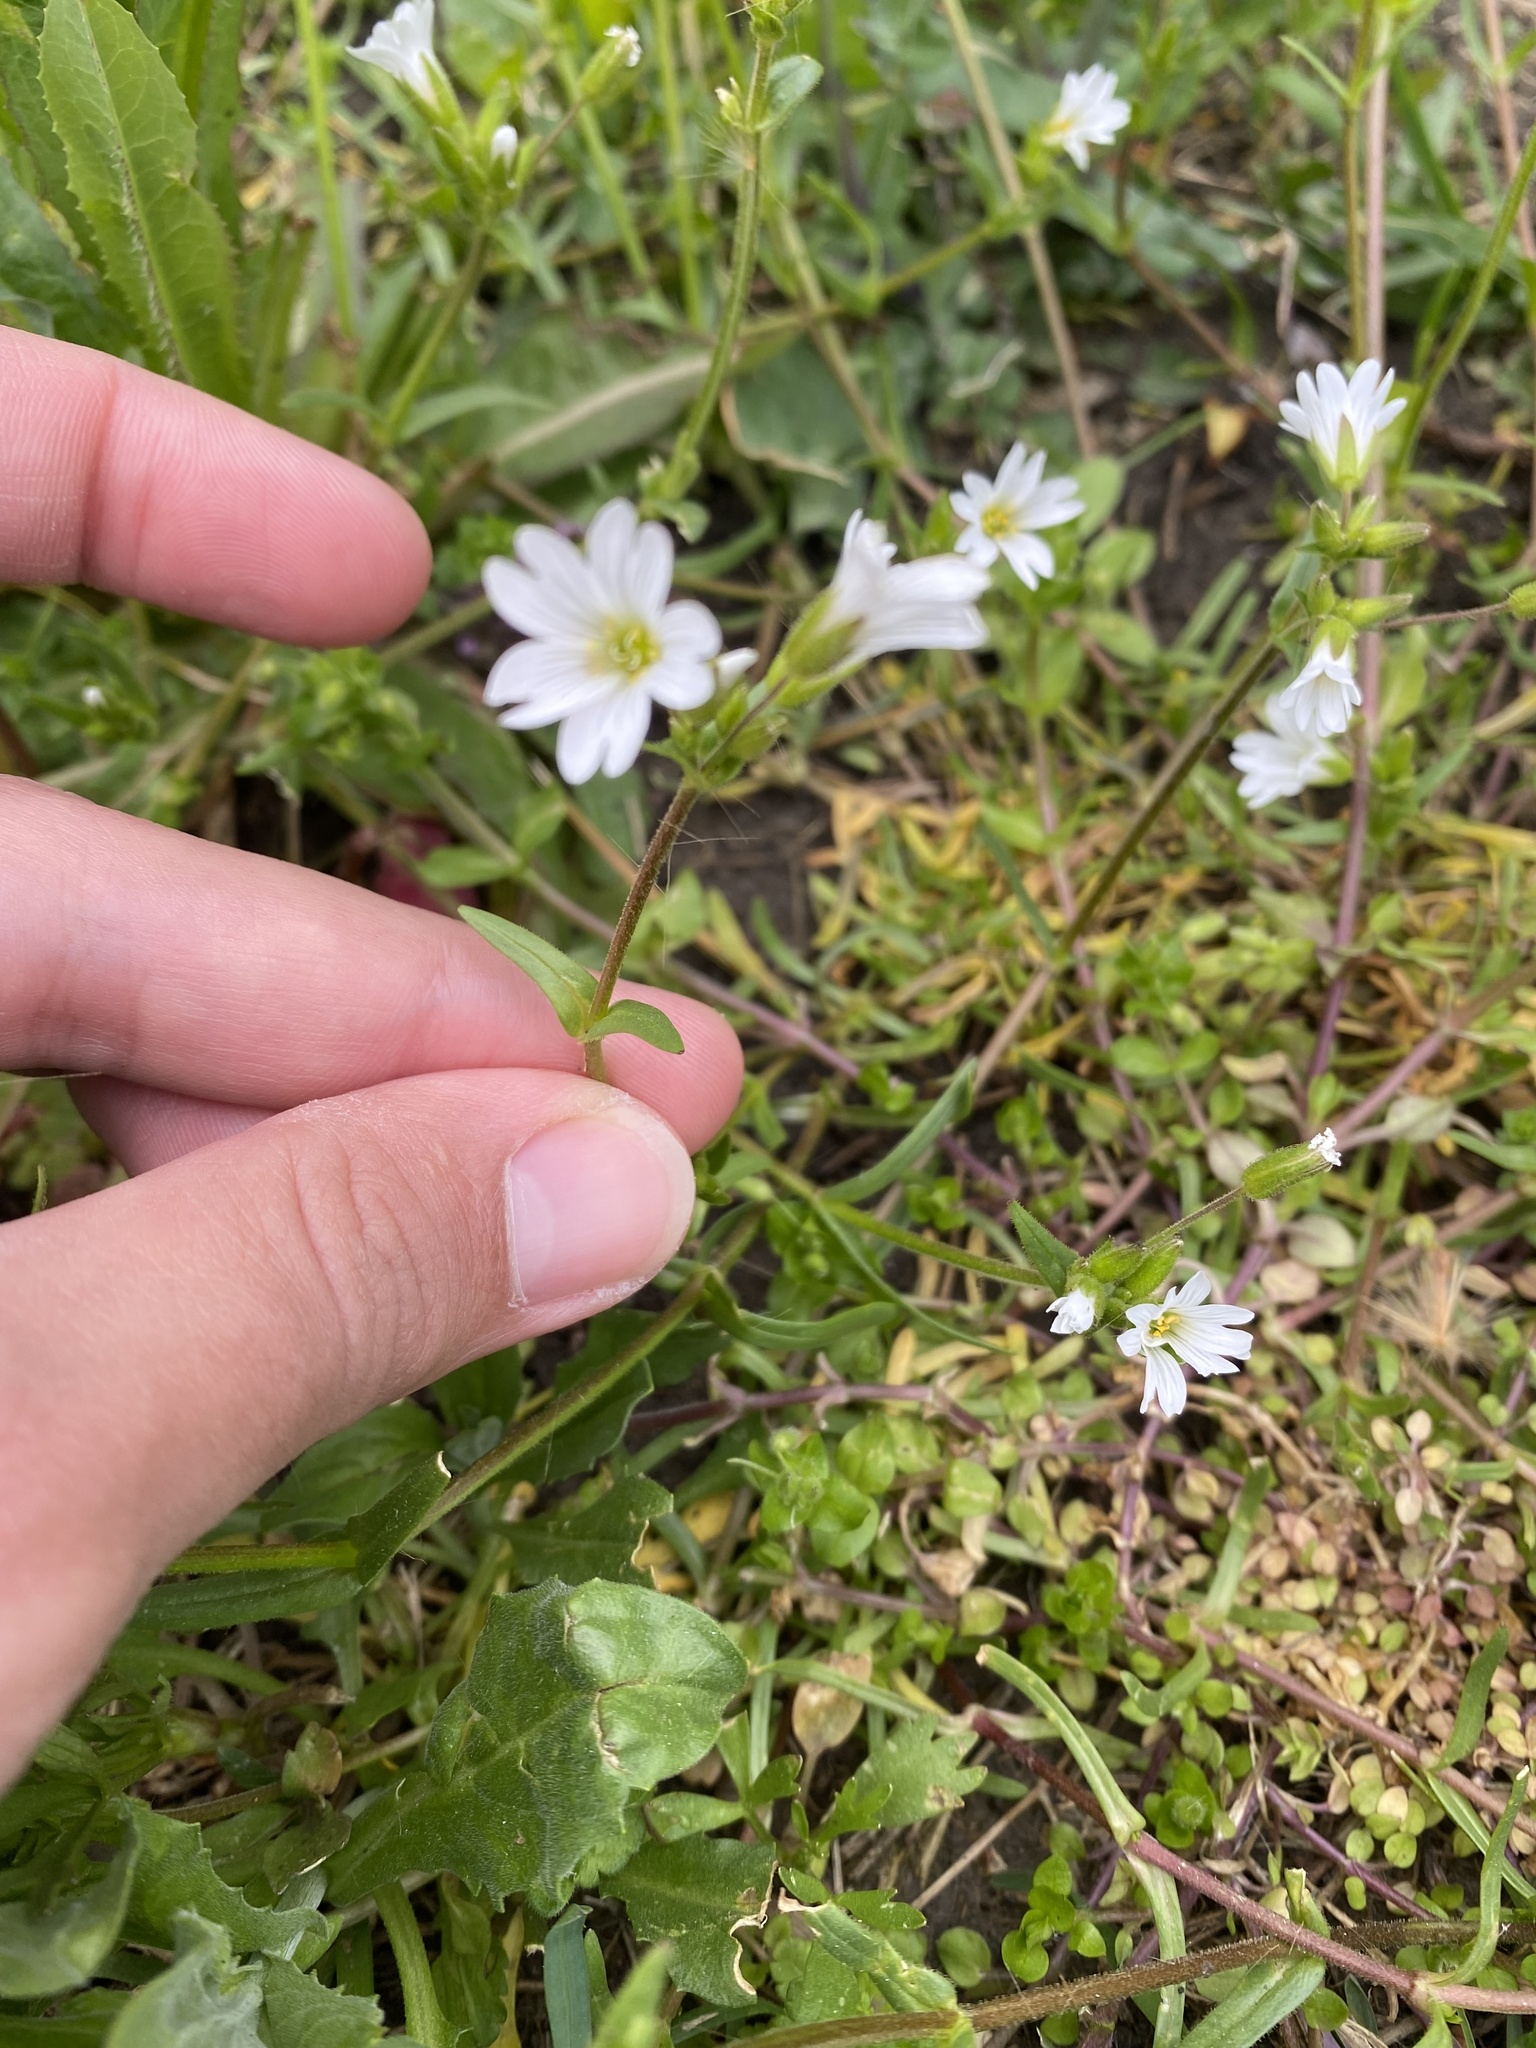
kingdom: Plantae
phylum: Tracheophyta
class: Magnoliopsida
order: Caryophyllales
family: Caryophyllaceae
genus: Dichodon
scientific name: Dichodon viscidum
